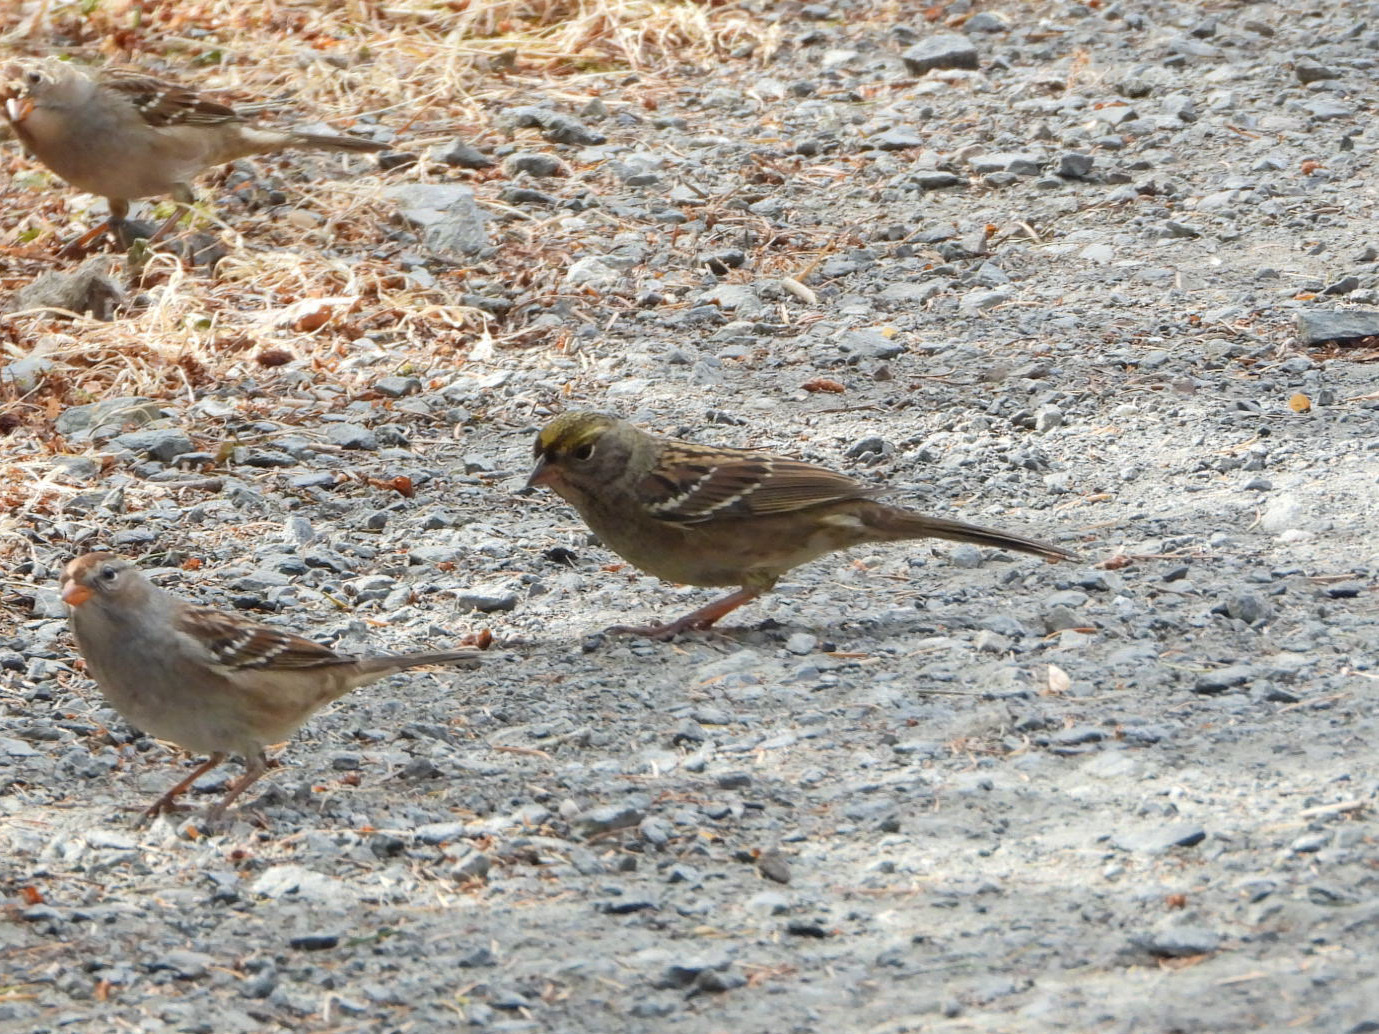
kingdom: Animalia
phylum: Chordata
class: Aves
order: Passeriformes
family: Passerellidae
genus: Zonotrichia
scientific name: Zonotrichia atricapilla
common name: Golden-crowned sparrow
